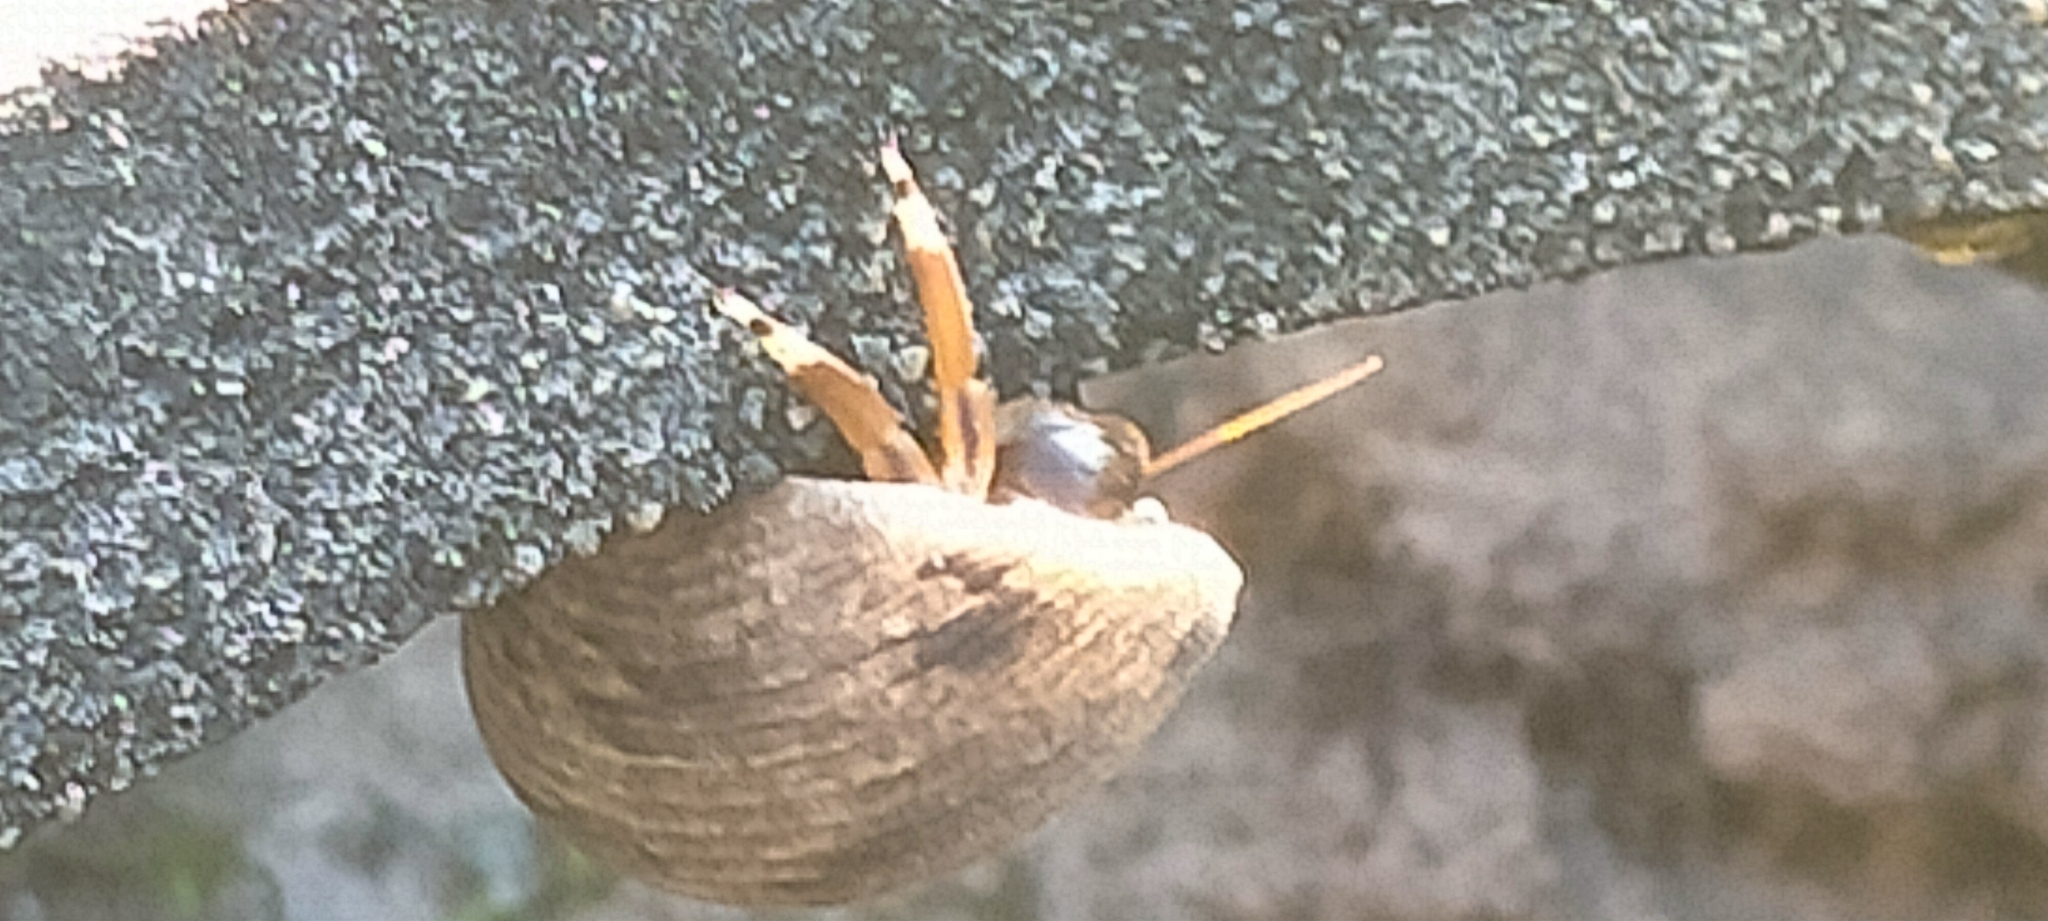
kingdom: Animalia
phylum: Arthropoda
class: Malacostraca
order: Decapoda
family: Diogenidae
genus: Calcinus
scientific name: Calcinus laevimanus
